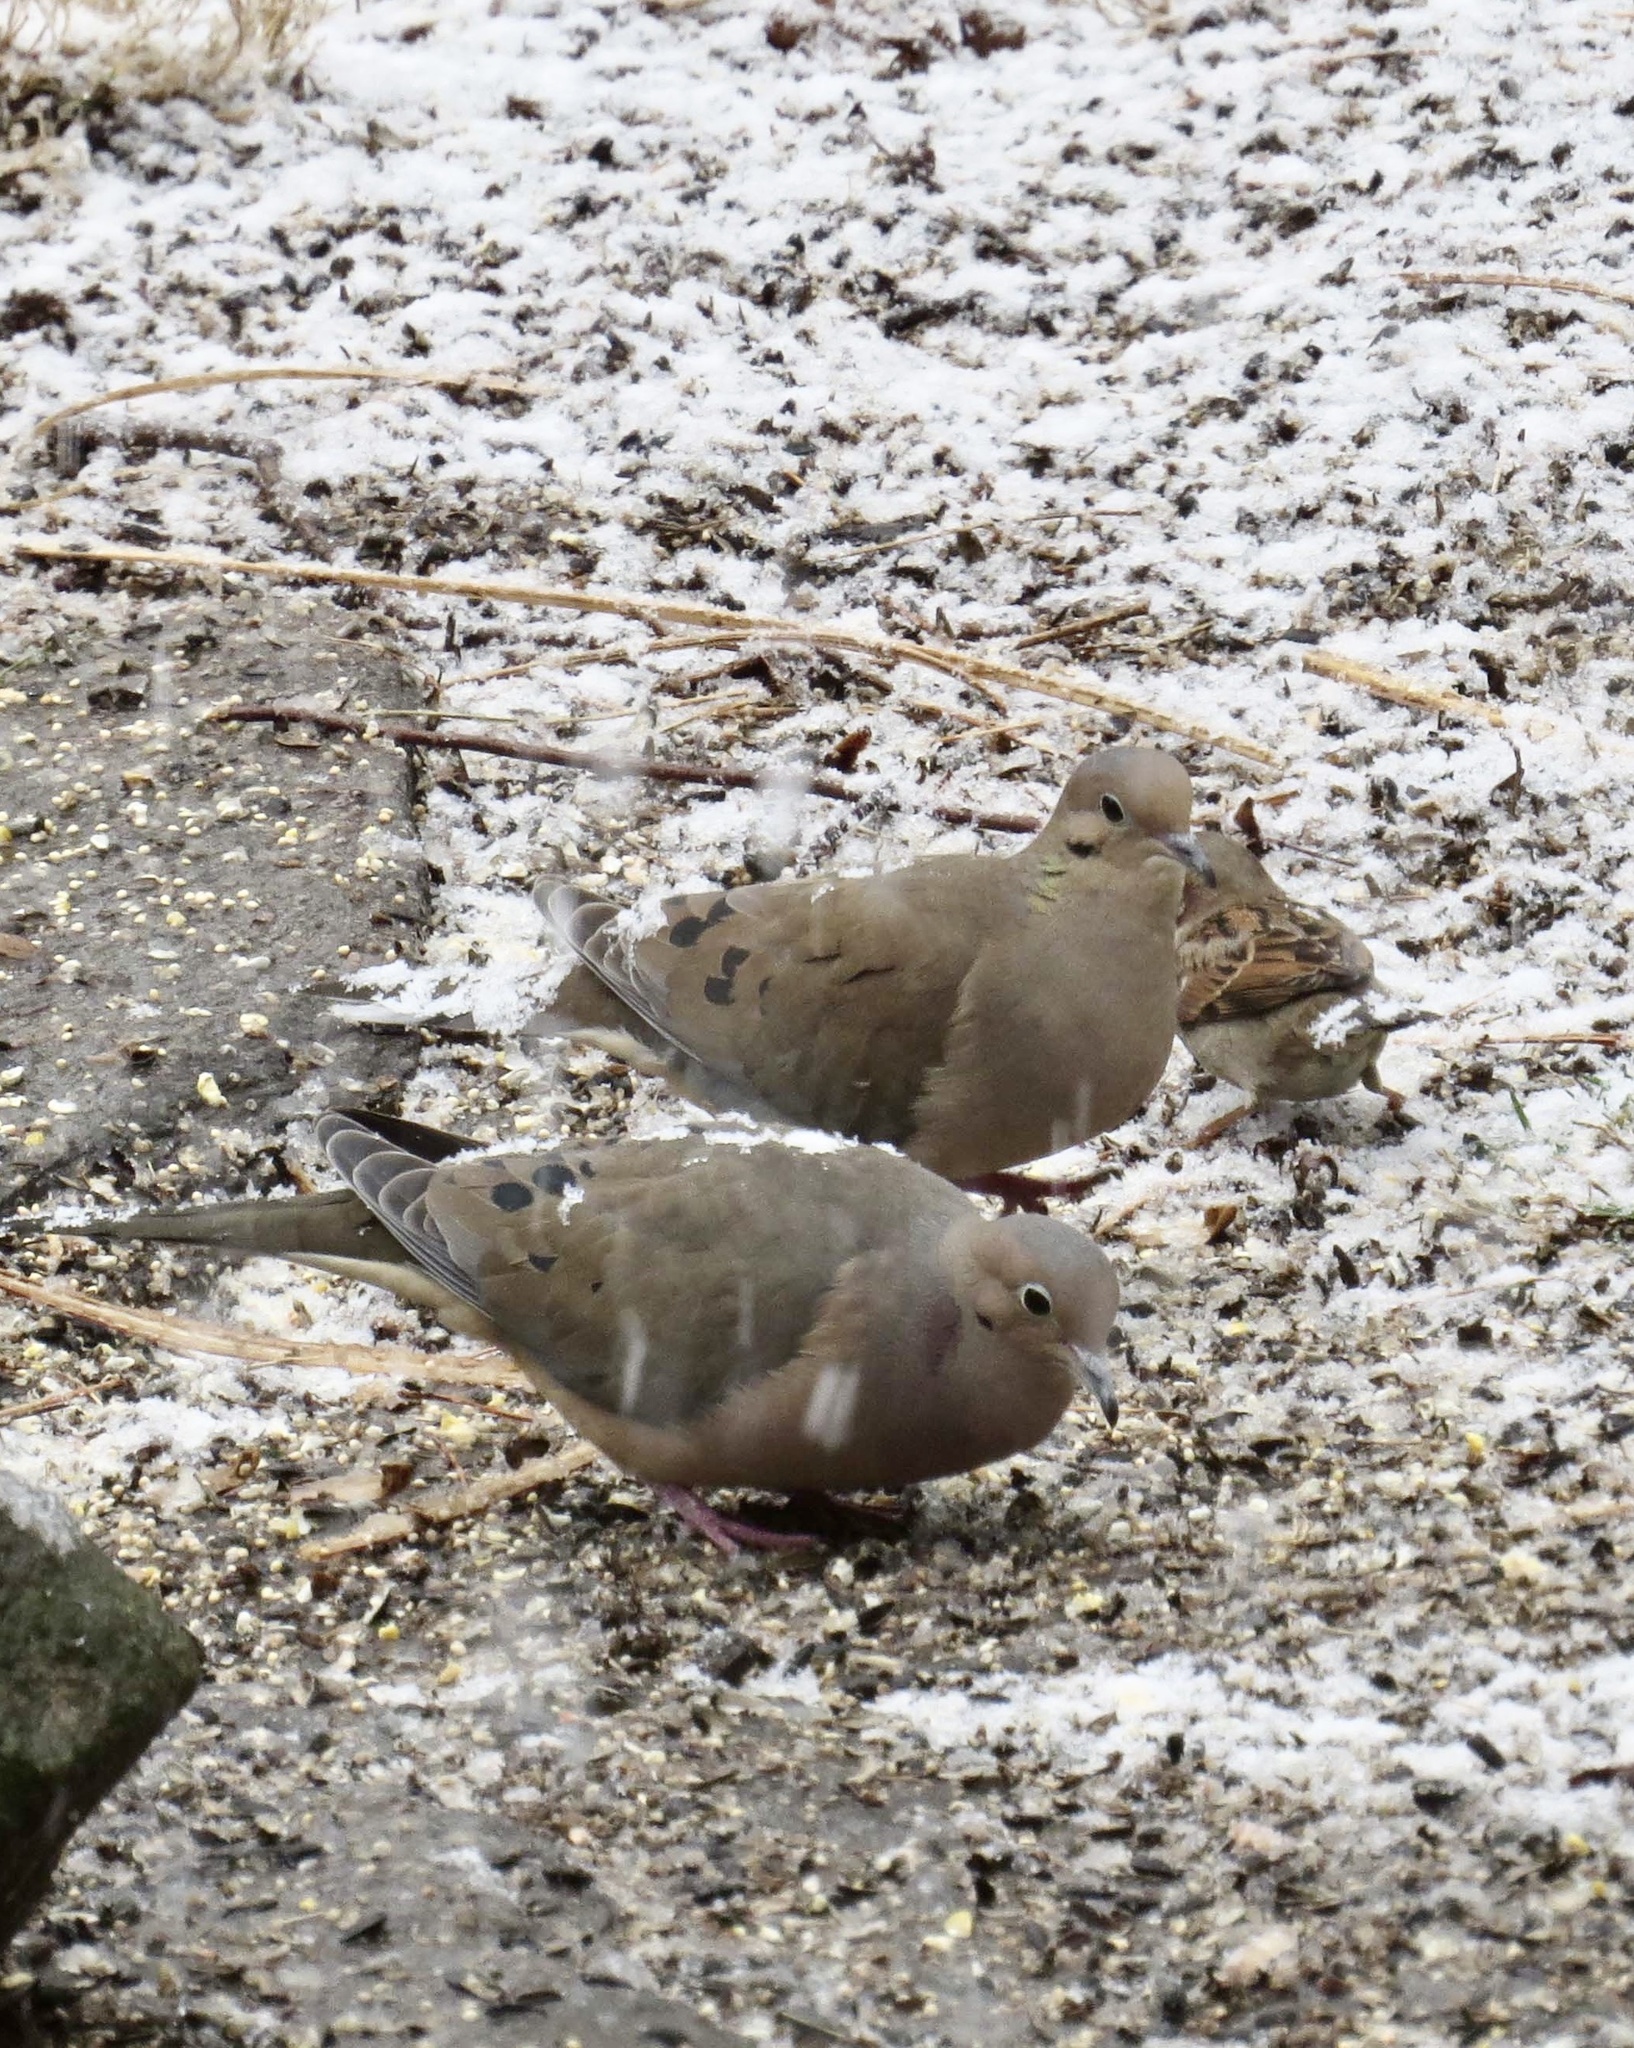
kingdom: Animalia
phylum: Chordata
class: Aves
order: Columbiformes
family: Columbidae
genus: Zenaida
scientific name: Zenaida macroura
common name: Mourning dove
